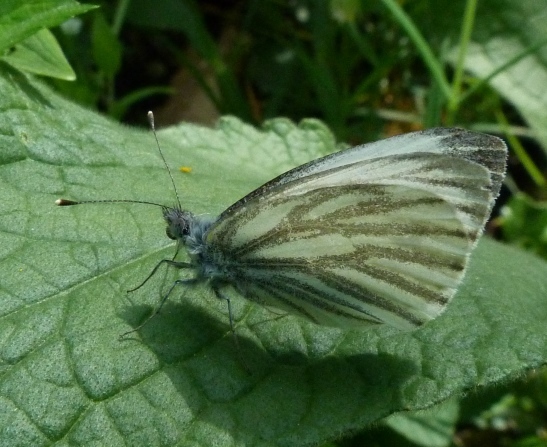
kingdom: Animalia
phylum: Arthropoda
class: Insecta
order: Lepidoptera
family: Pieridae
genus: Pieris
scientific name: Pieris napi
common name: Green-veined white
